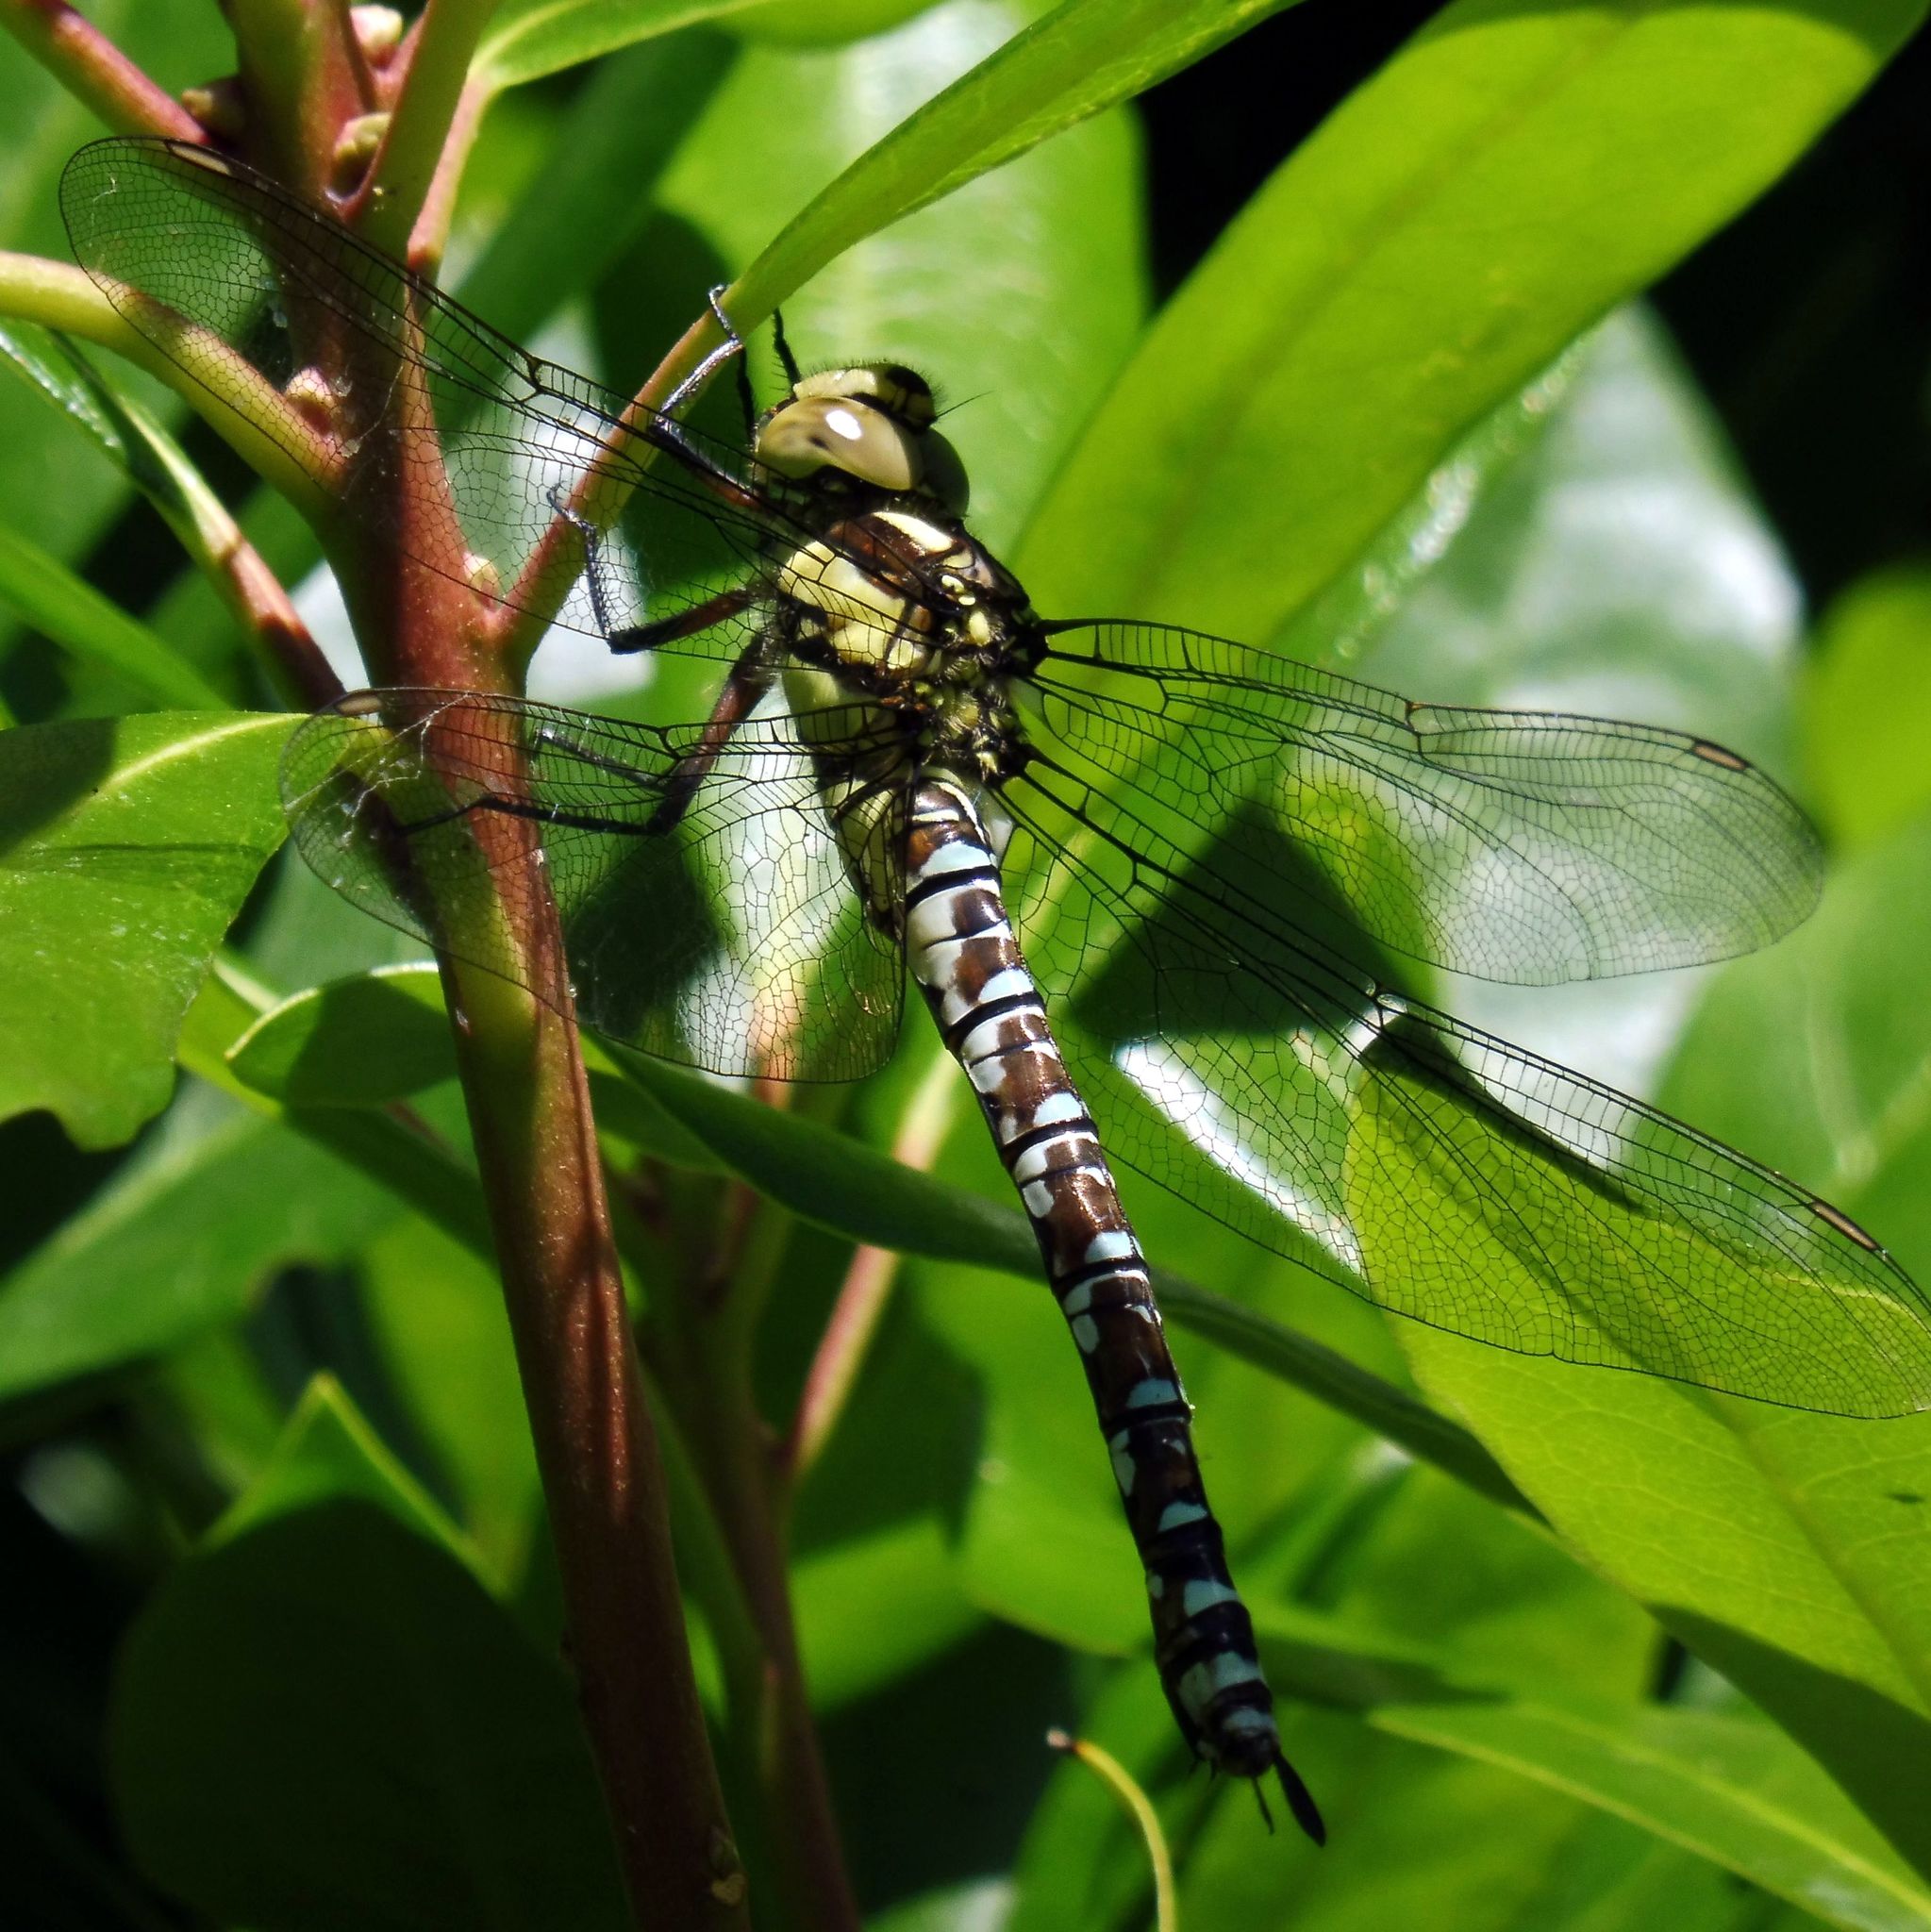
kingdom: Animalia
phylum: Arthropoda
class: Insecta
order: Odonata
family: Aeshnidae
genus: Aeshna
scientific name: Aeshna cyanea
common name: Southern hawker
